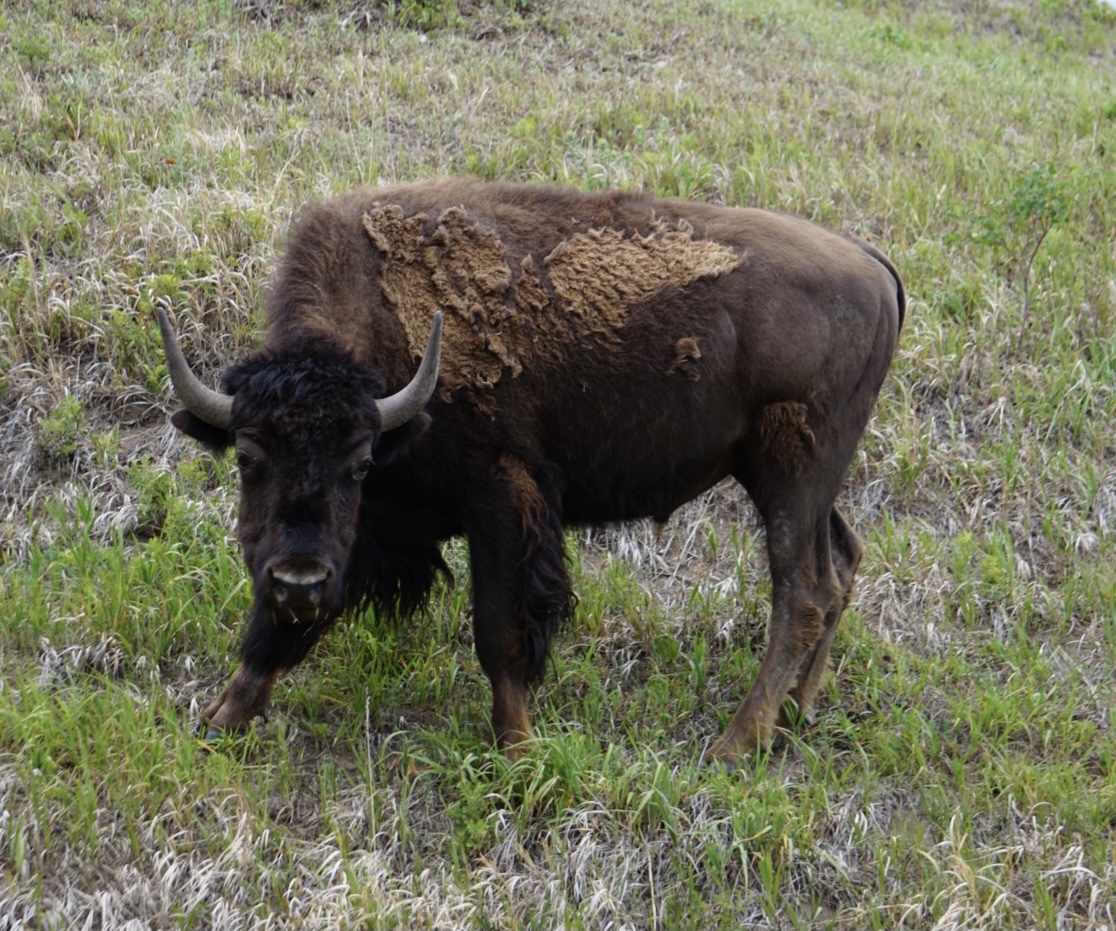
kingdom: Animalia
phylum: Chordata
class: Mammalia
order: Artiodactyla
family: Bovidae
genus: Bison
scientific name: Bison bison
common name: American bison
